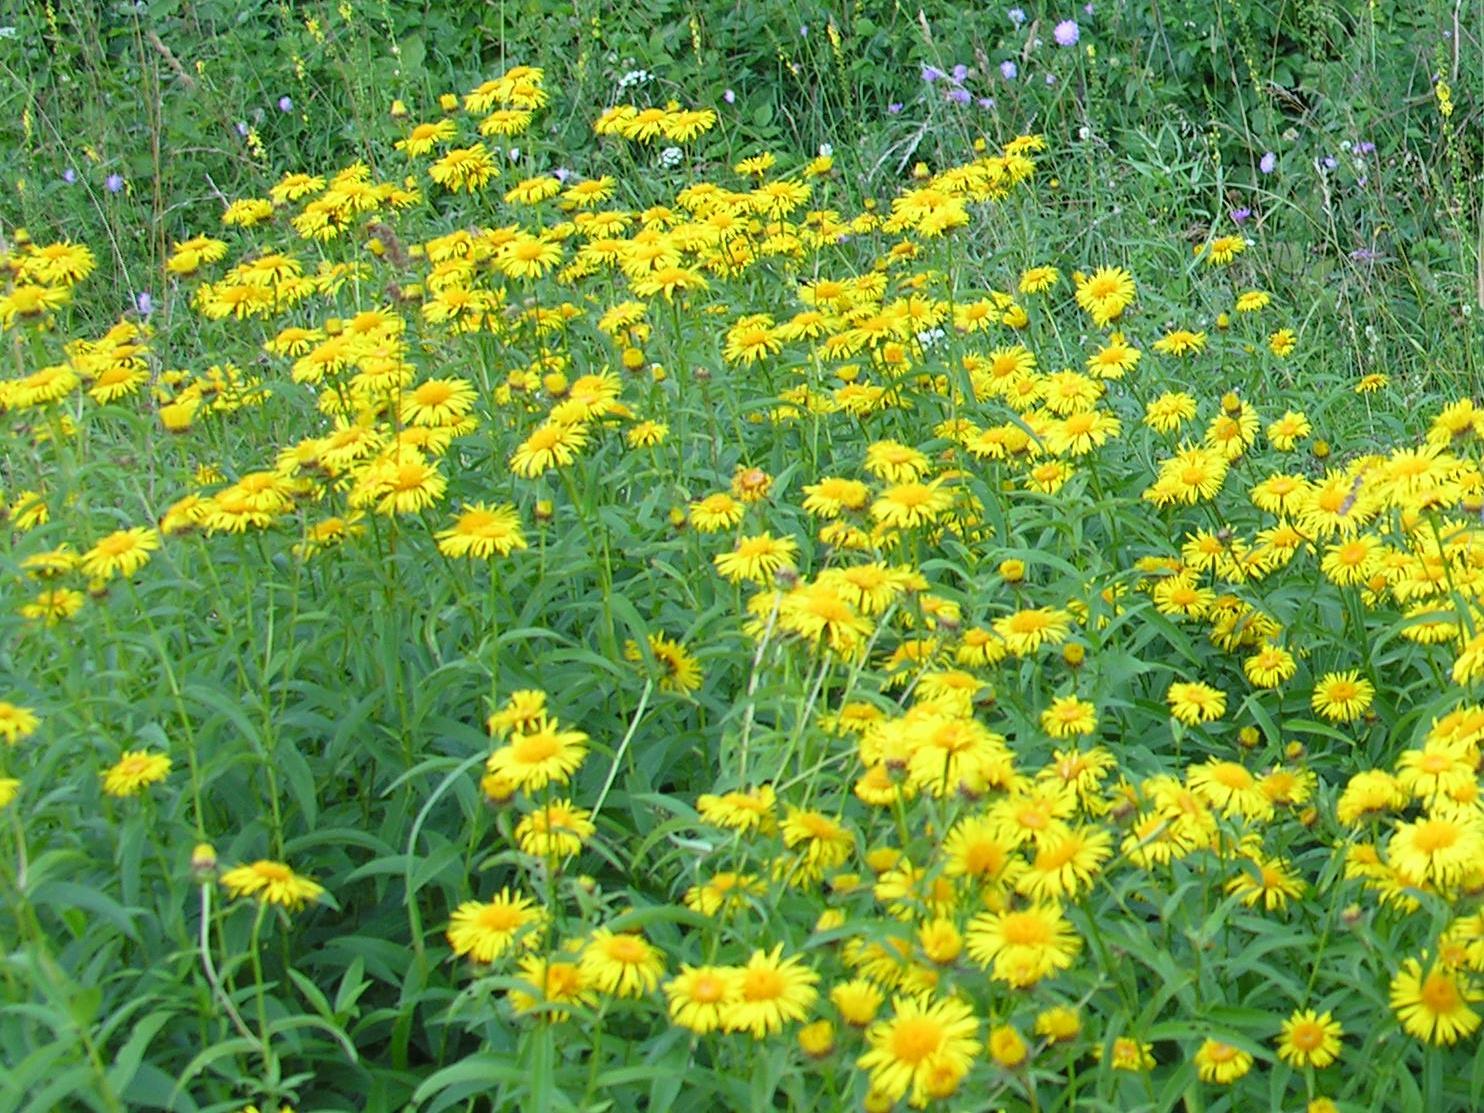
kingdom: Plantae
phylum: Tracheophyta
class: Magnoliopsida
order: Asterales
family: Asteraceae
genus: Pentanema
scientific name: Pentanema salicinum
